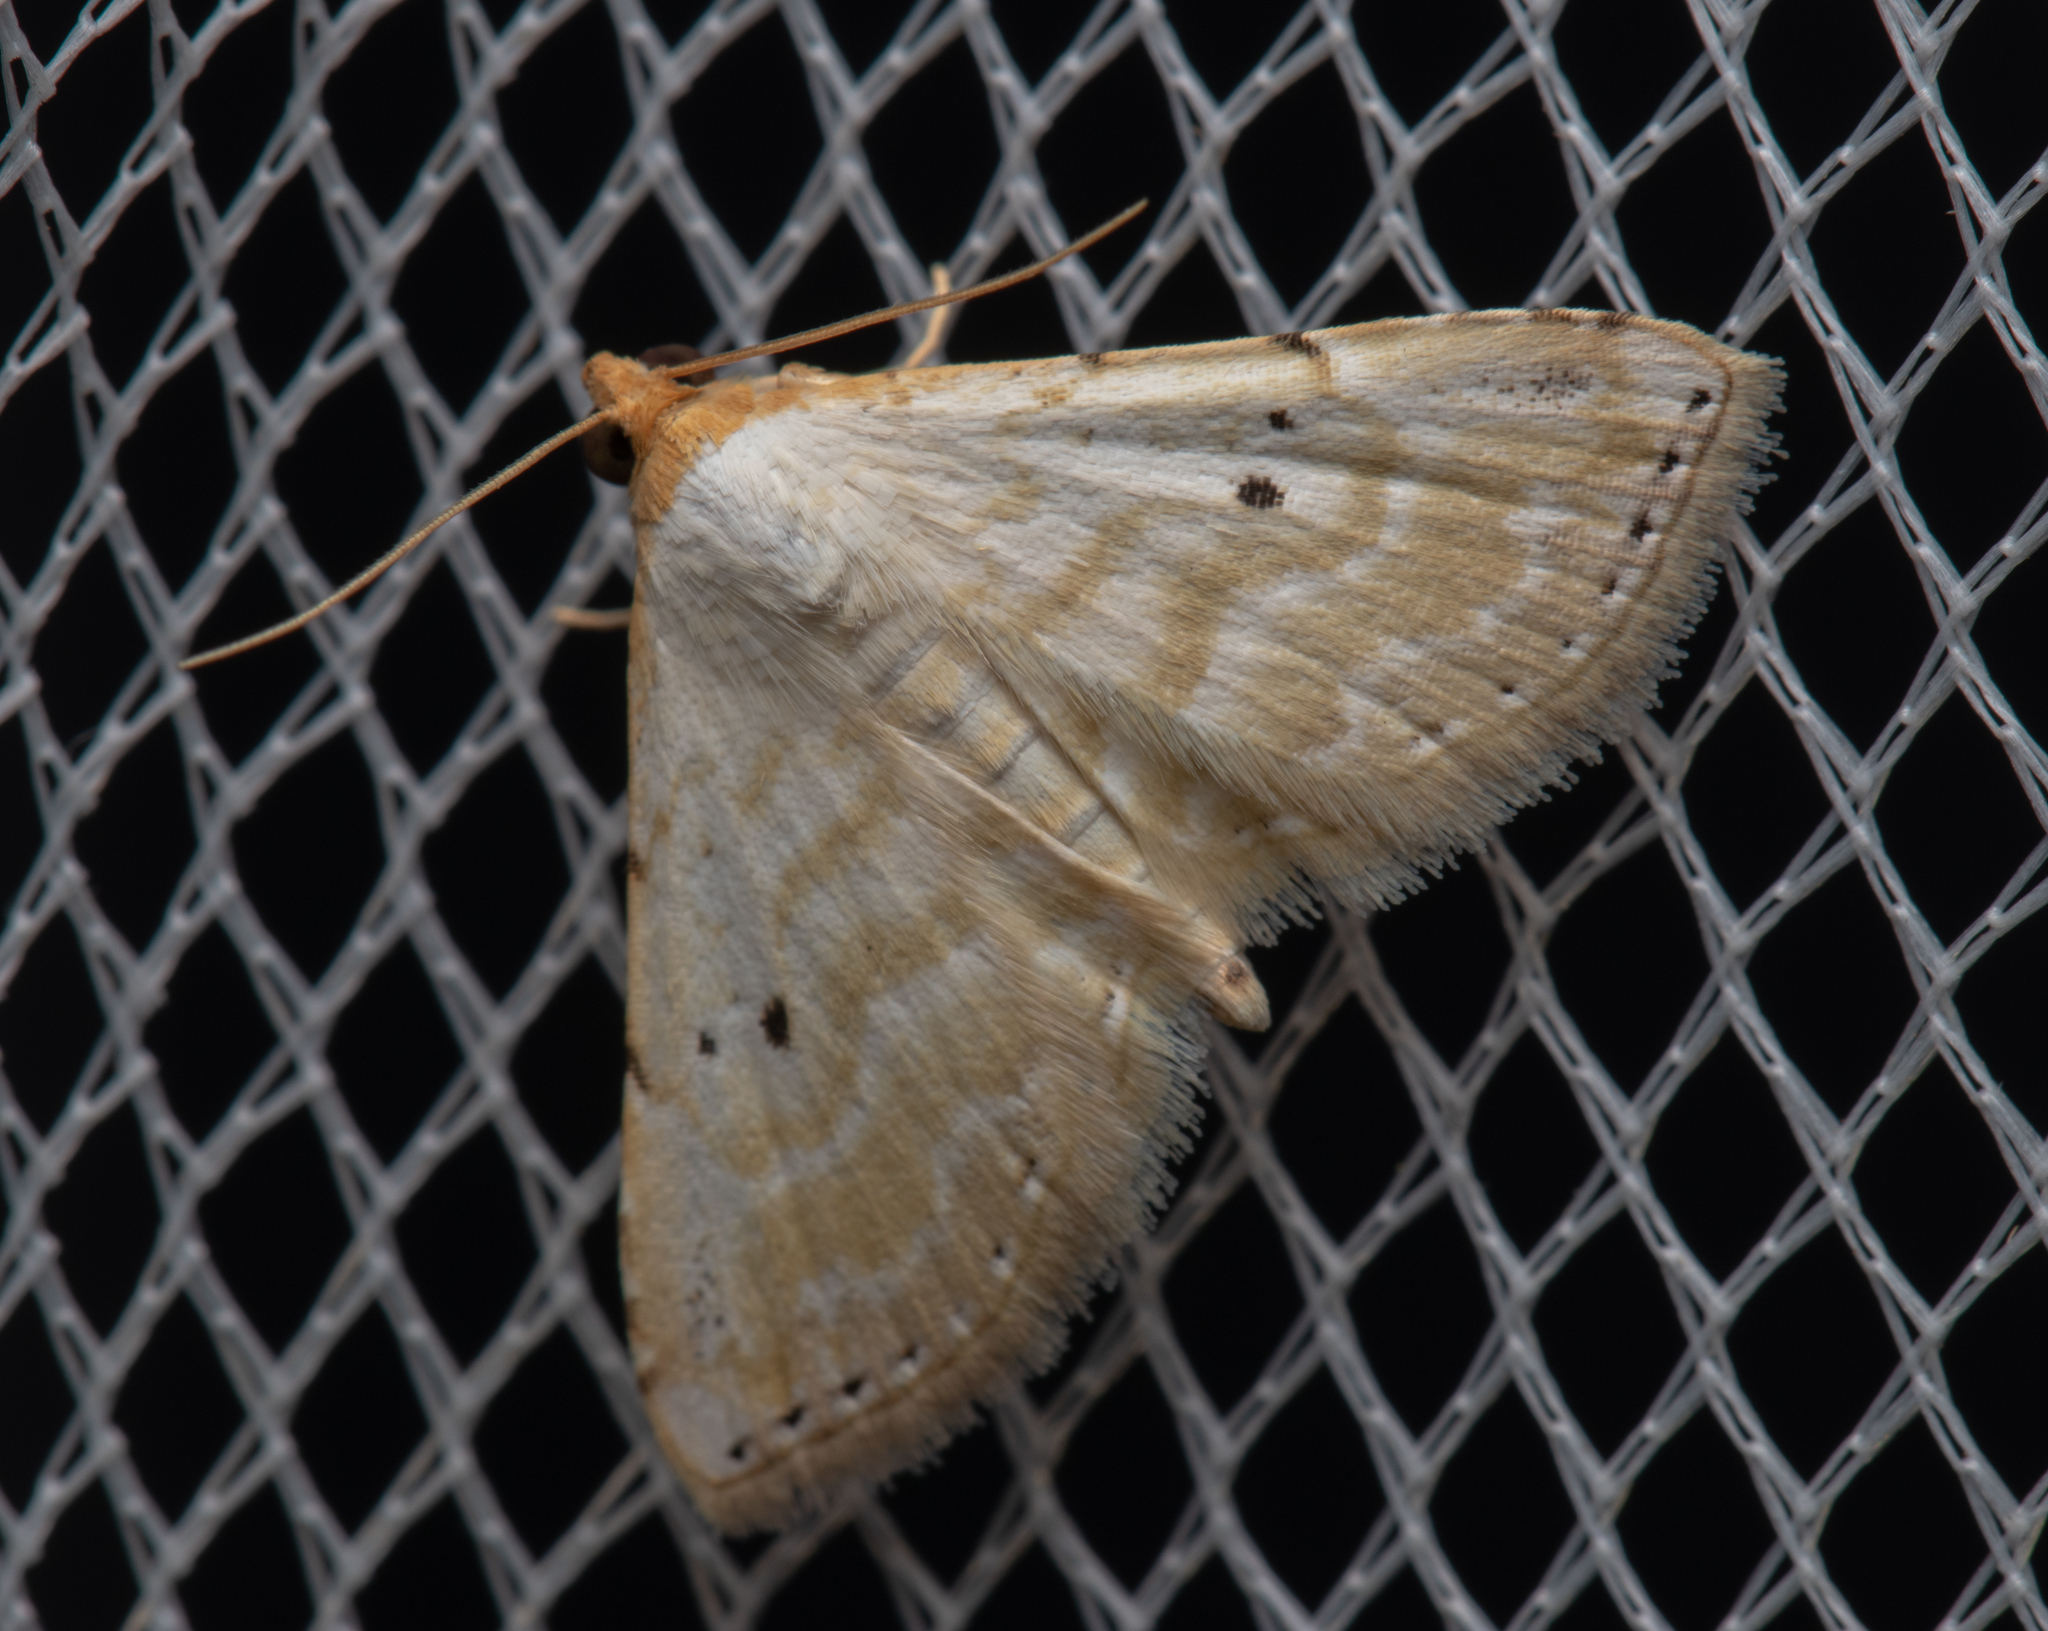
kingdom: Animalia
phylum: Arthropoda
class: Insecta
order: Lepidoptera
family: Noctuidae
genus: Oruza
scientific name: Oruza cariosa
